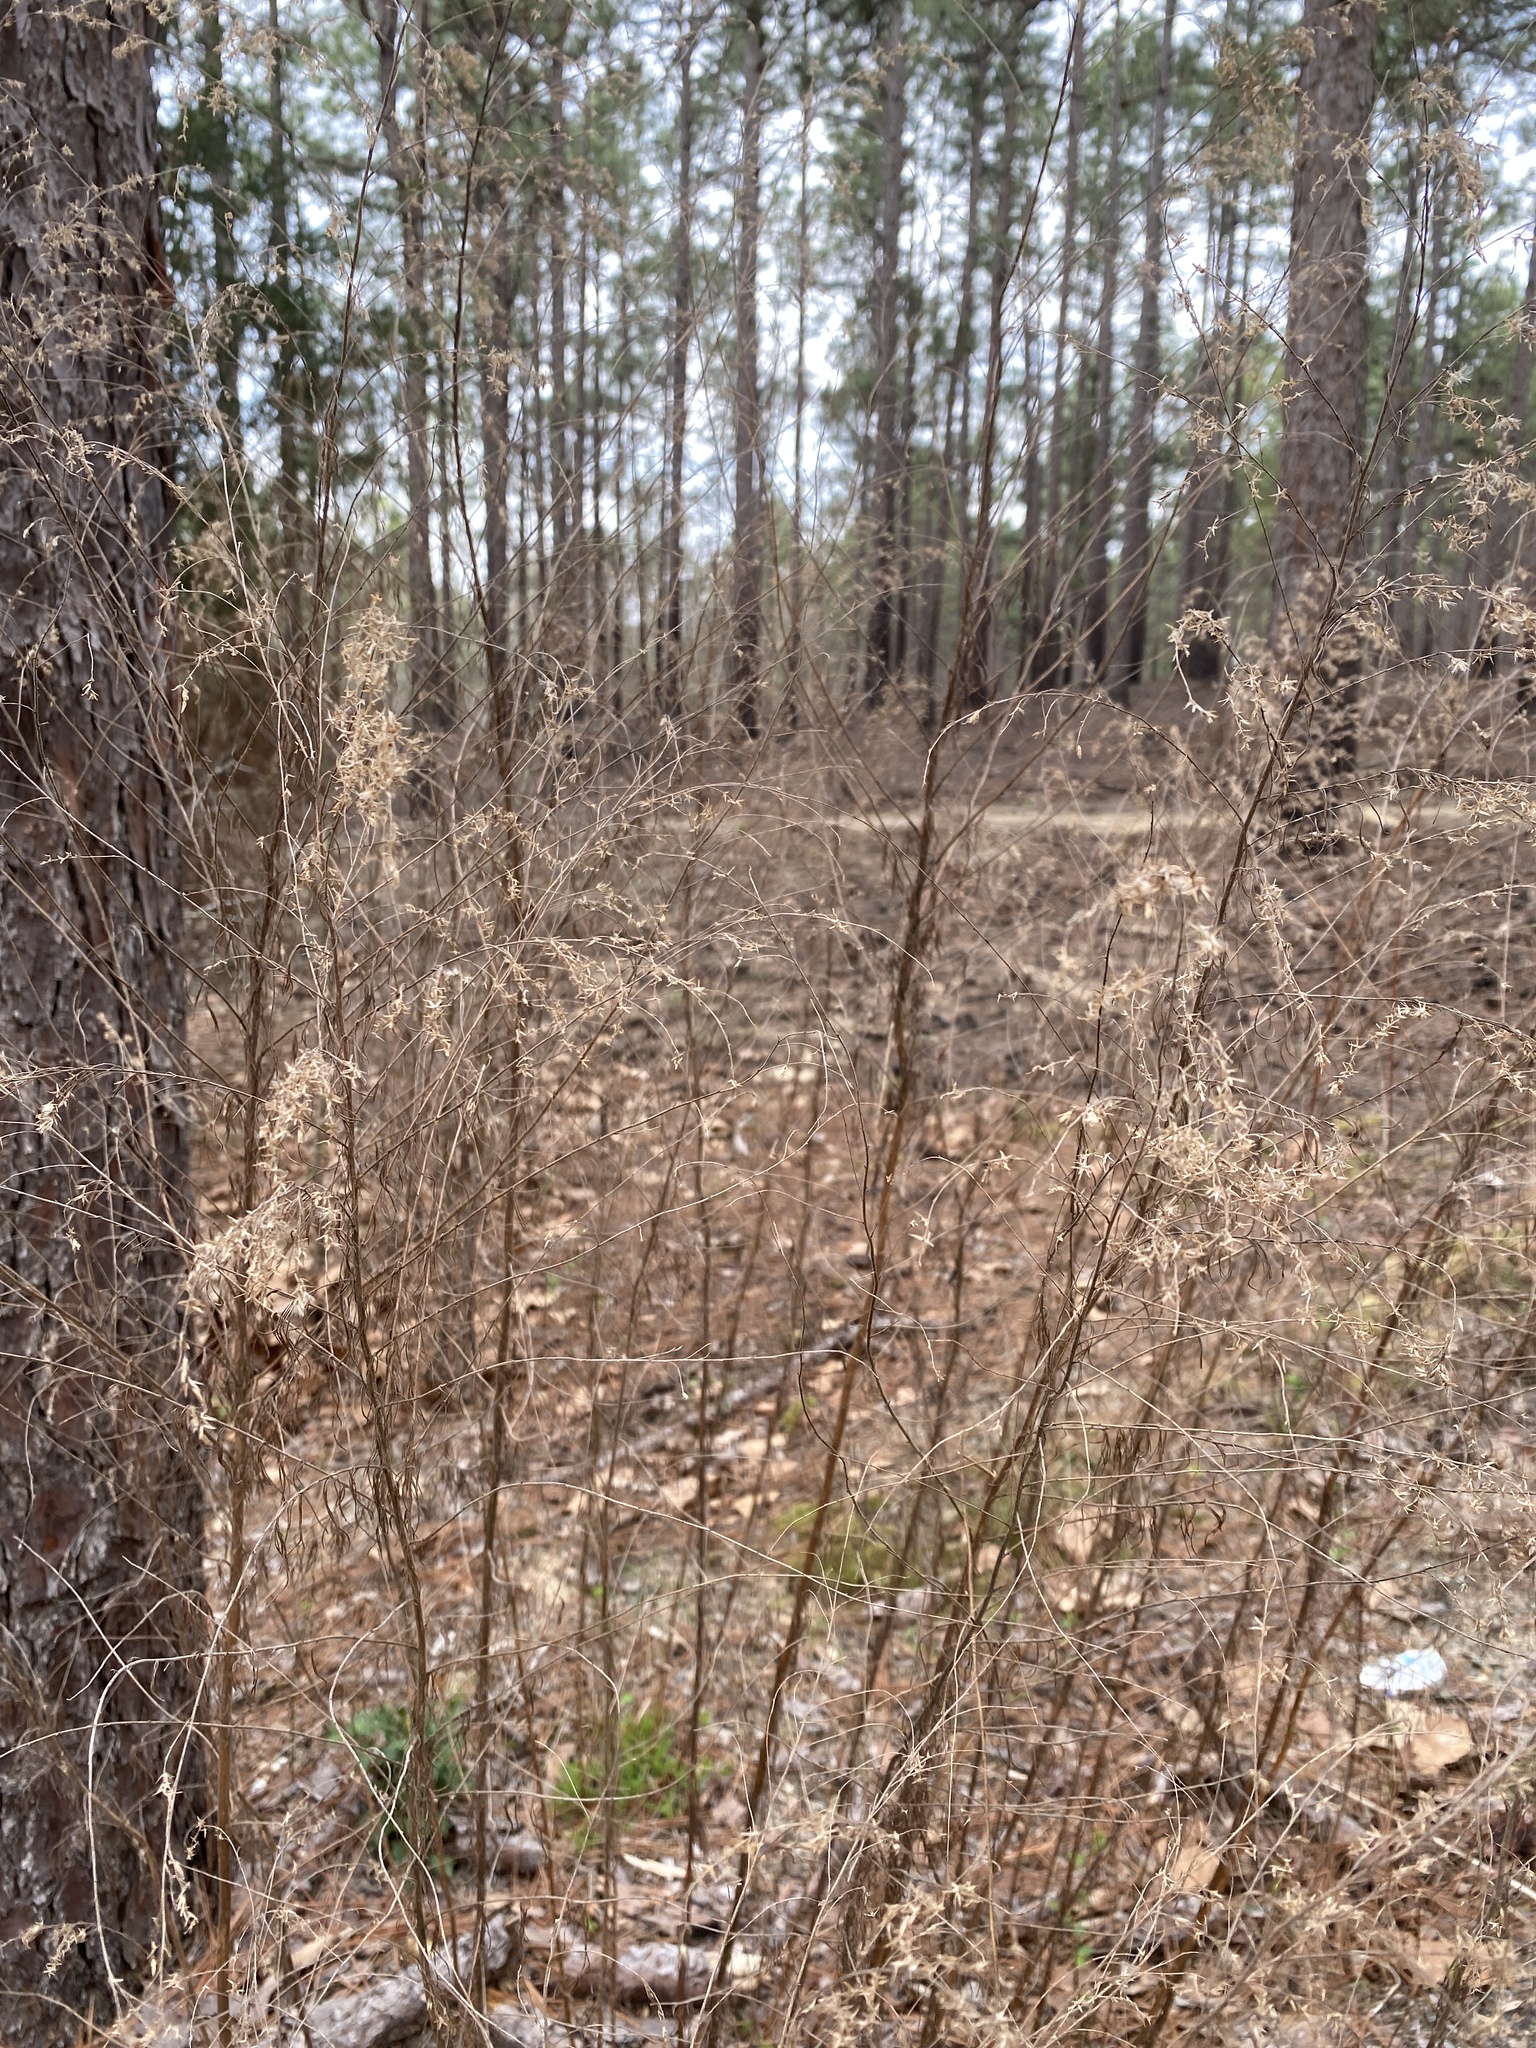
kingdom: Plantae
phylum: Tracheophyta
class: Magnoliopsida
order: Asterales
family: Asteraceae
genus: Eupatorium
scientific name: Eupatorium compositifolium
